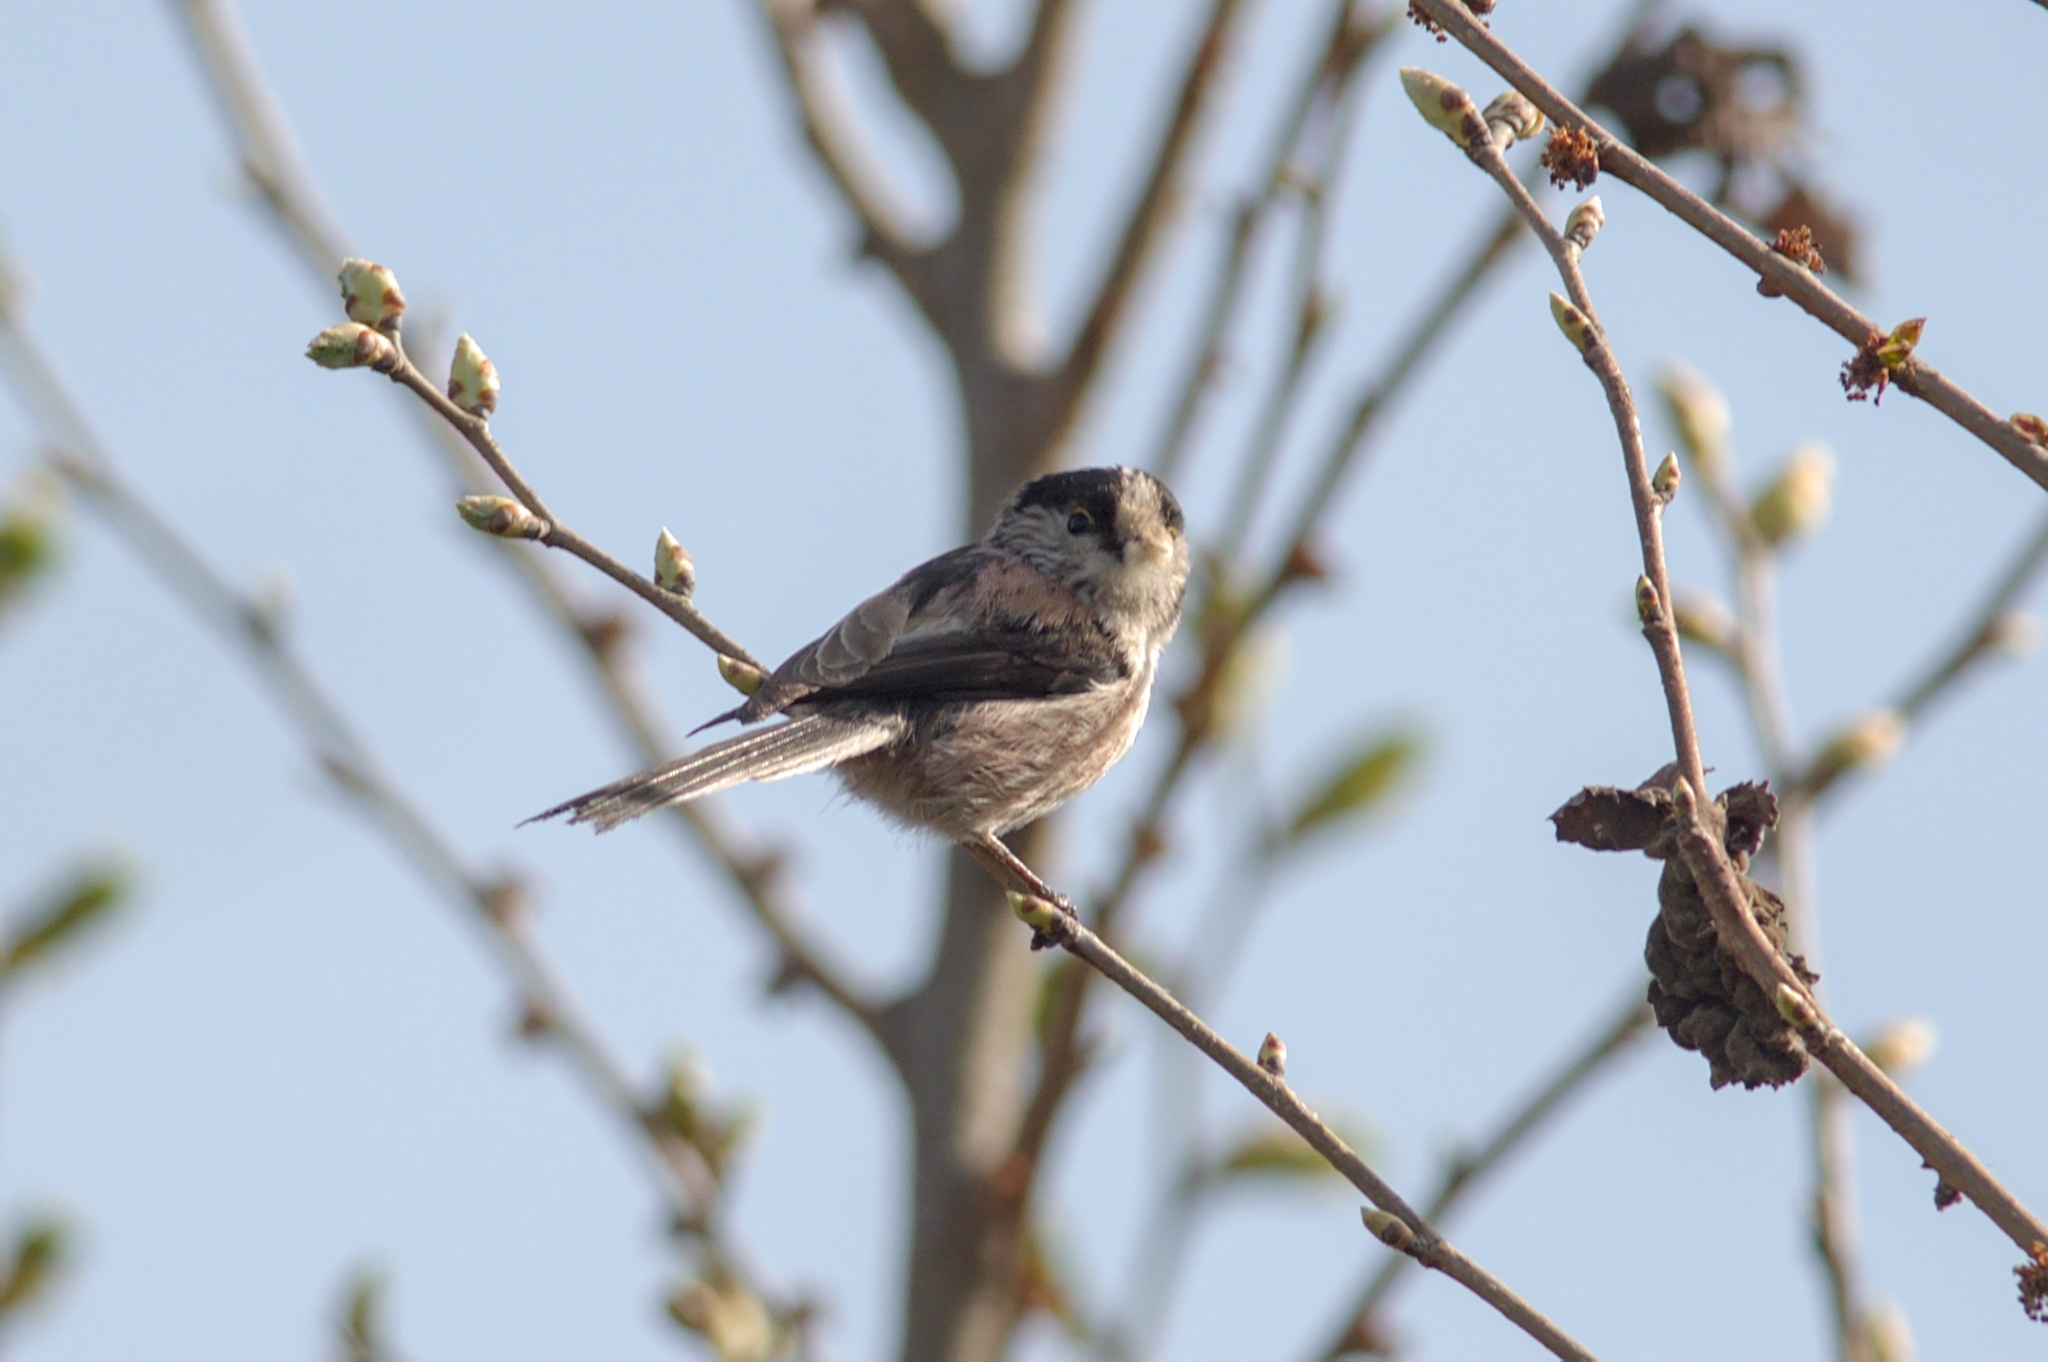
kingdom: Animalia
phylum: Chordata
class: Aves
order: Passeriformes
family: Aegithalidae
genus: Aegithalos
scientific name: Aegithalos caudatus
